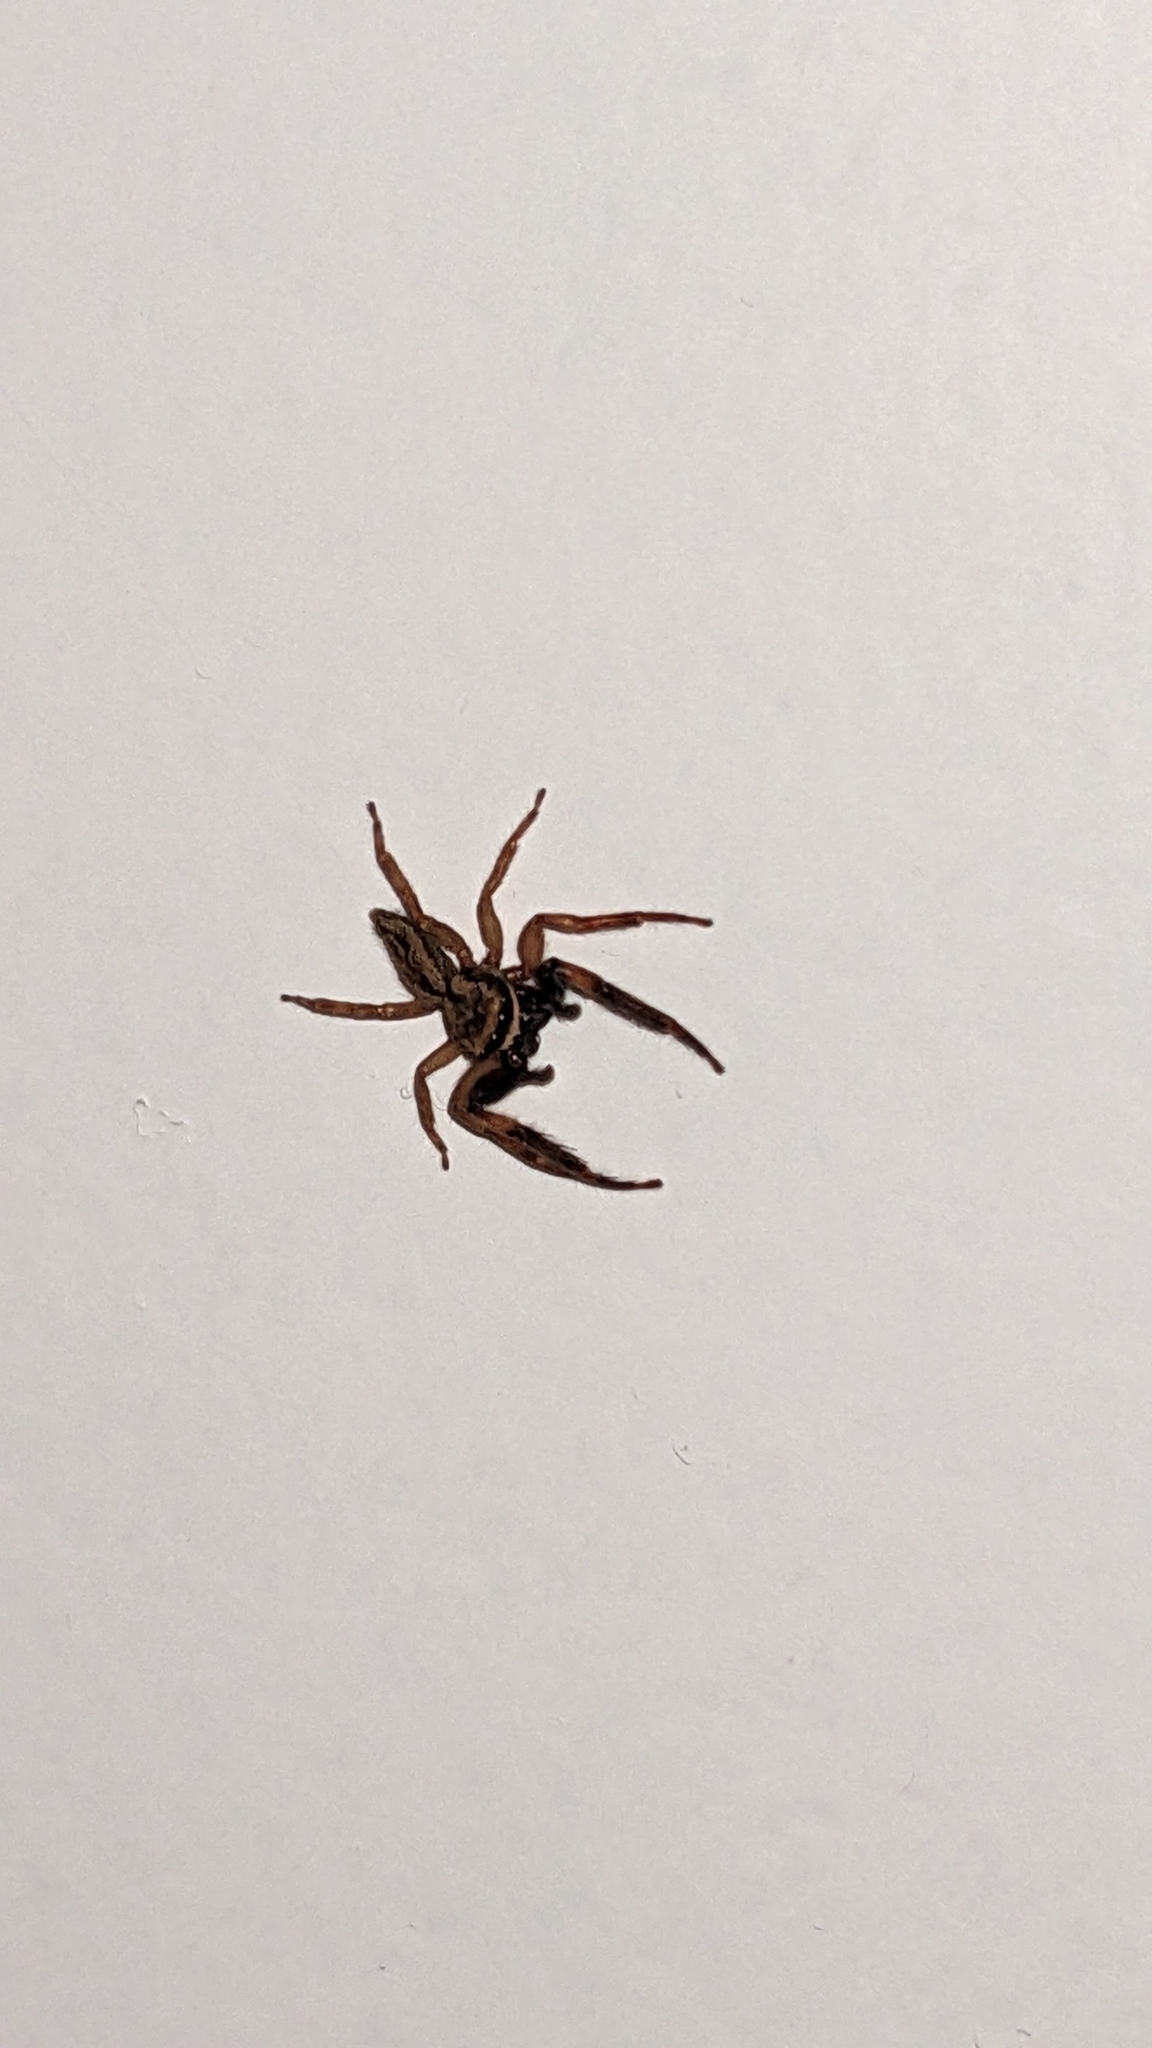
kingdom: Animalia
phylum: Arthropoda
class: Arachnida
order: Araneae
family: Salticidae
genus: Trite
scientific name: Trite auricoma
